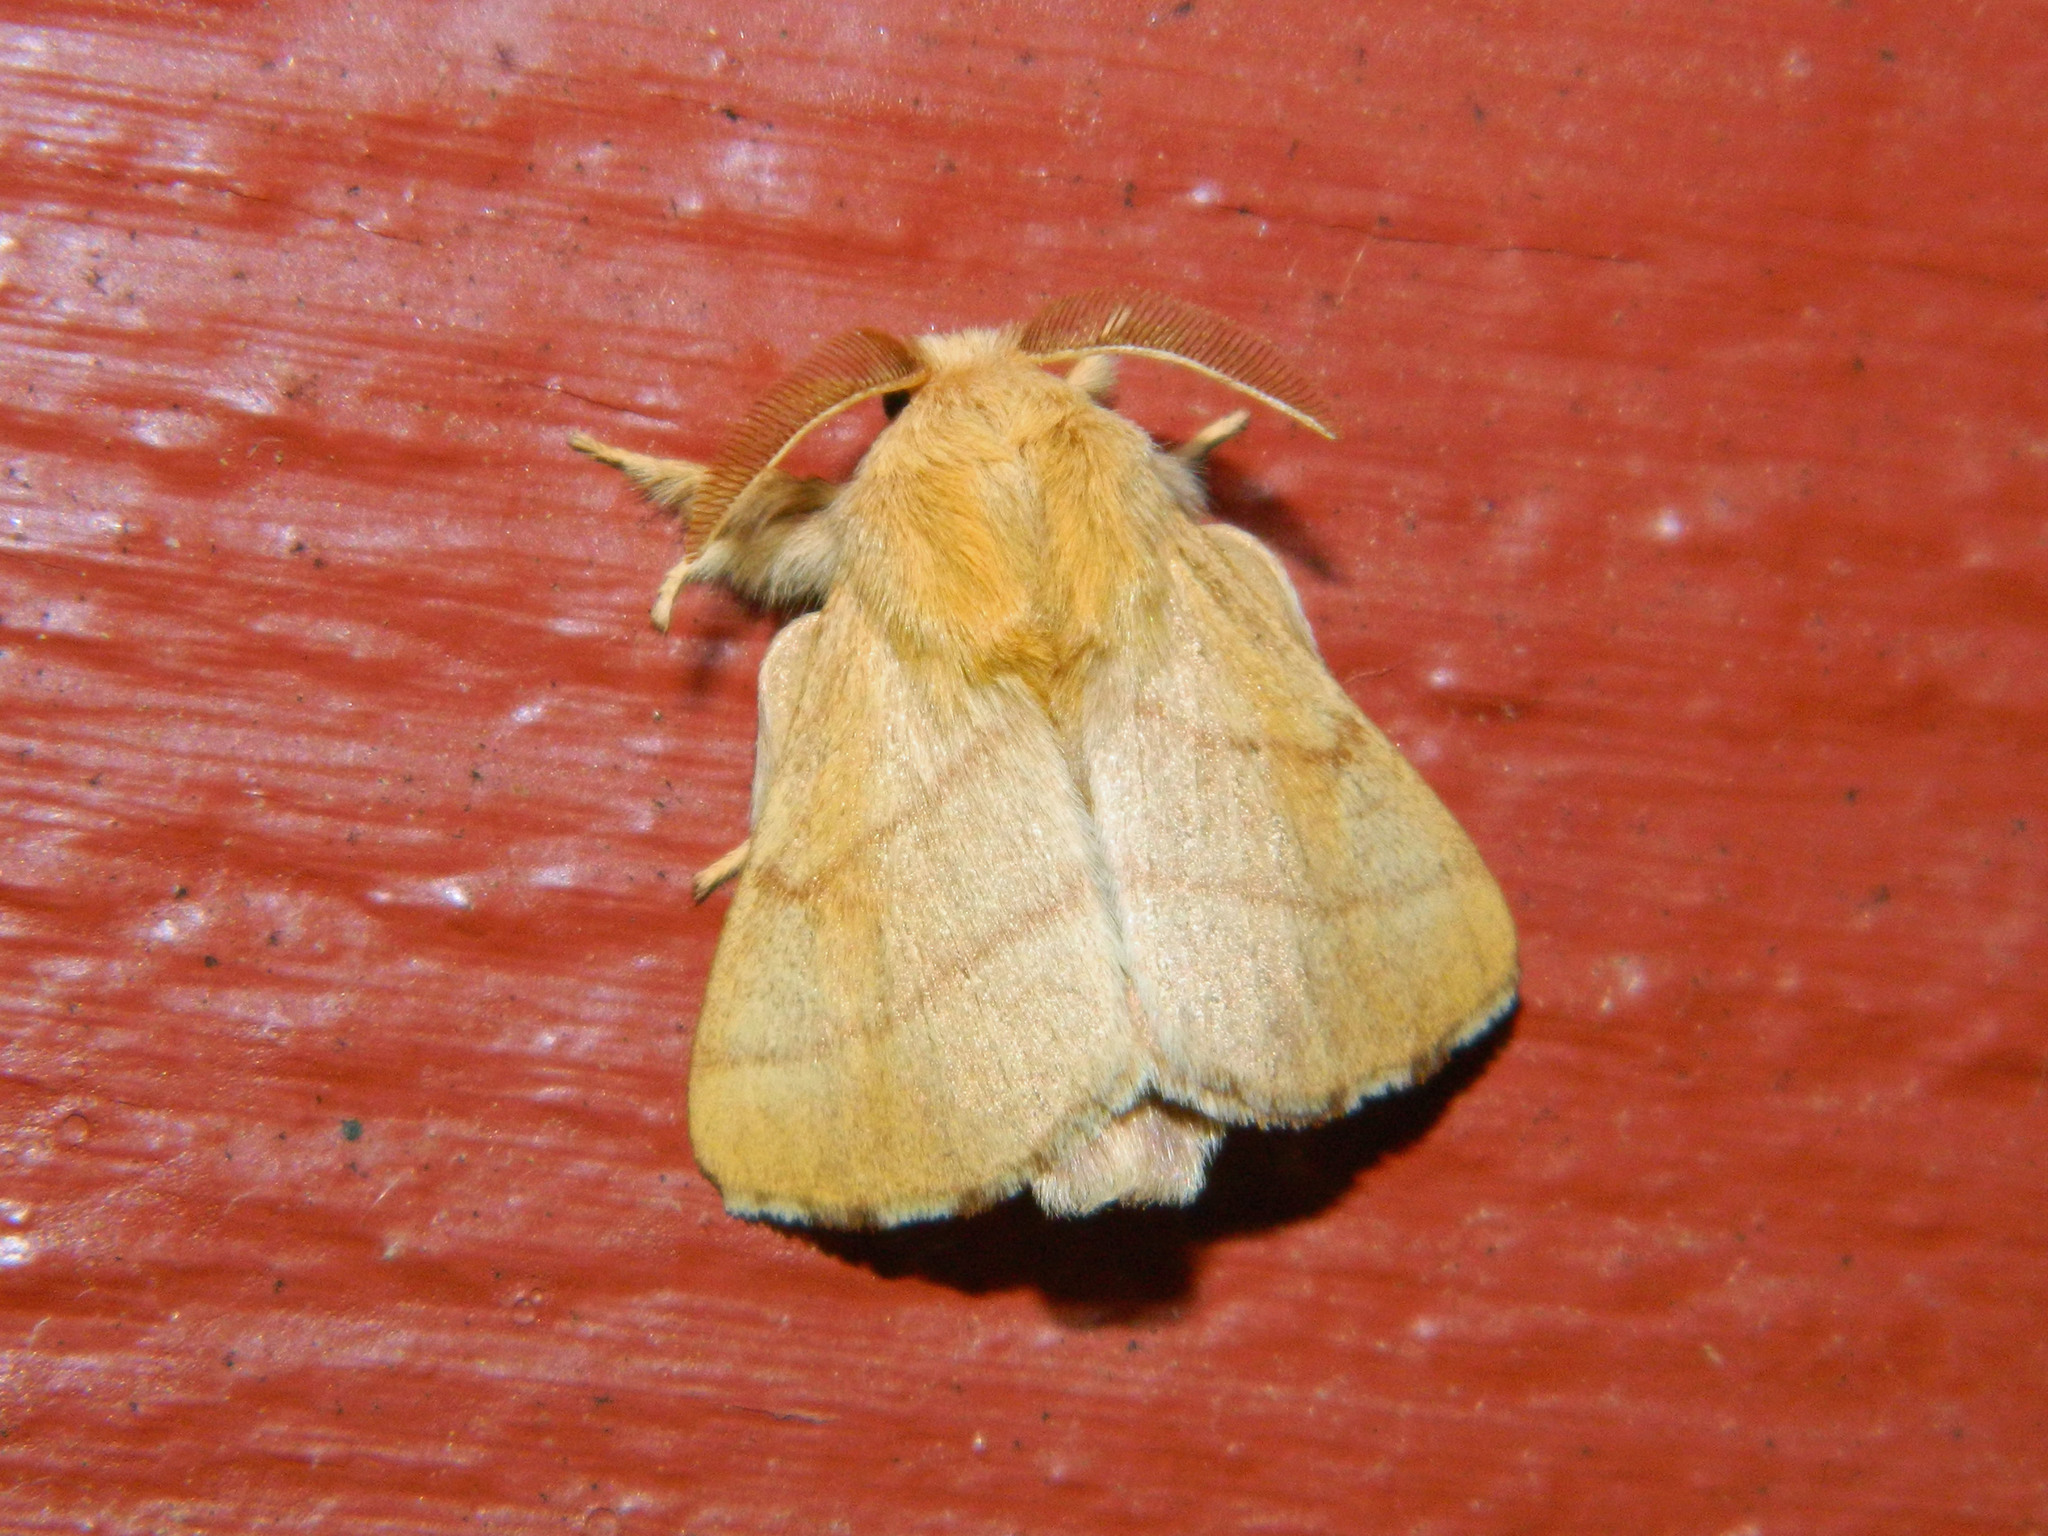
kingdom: Animalia
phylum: Arthropoda
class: Insecta
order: Lepidoptera
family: Lasiocampidae
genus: Malacosoma
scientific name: Malacosoma disstria
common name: Forest tent caterpillar
